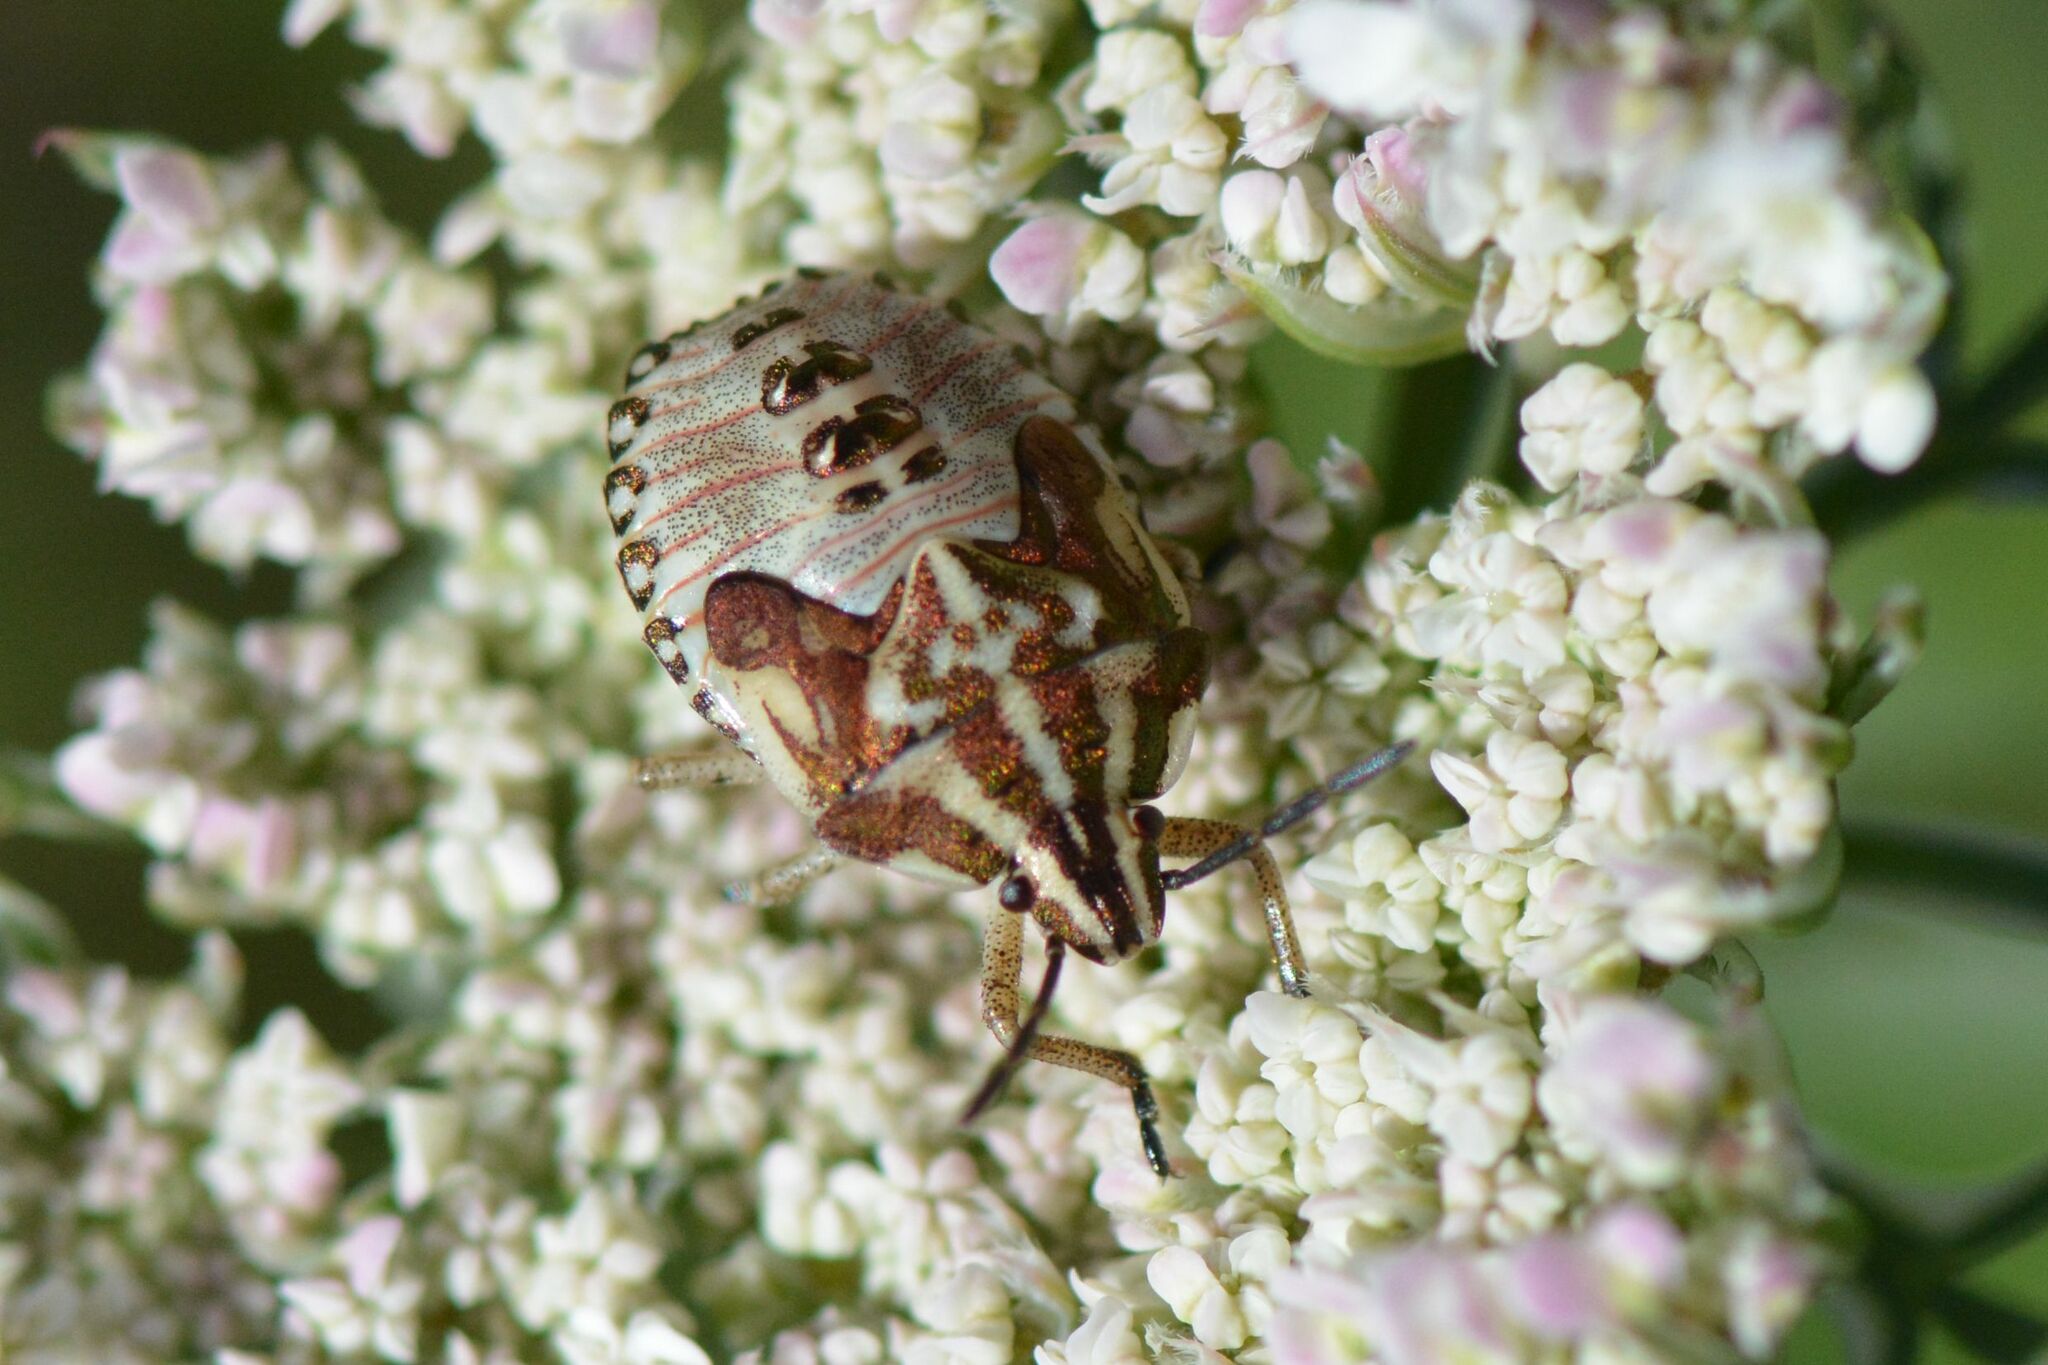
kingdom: Animalia
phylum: Arthropoda
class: Insecta
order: Hemiptera
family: Pentatomidae
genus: Carpocoris
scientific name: Carpocoris purpureipennis
